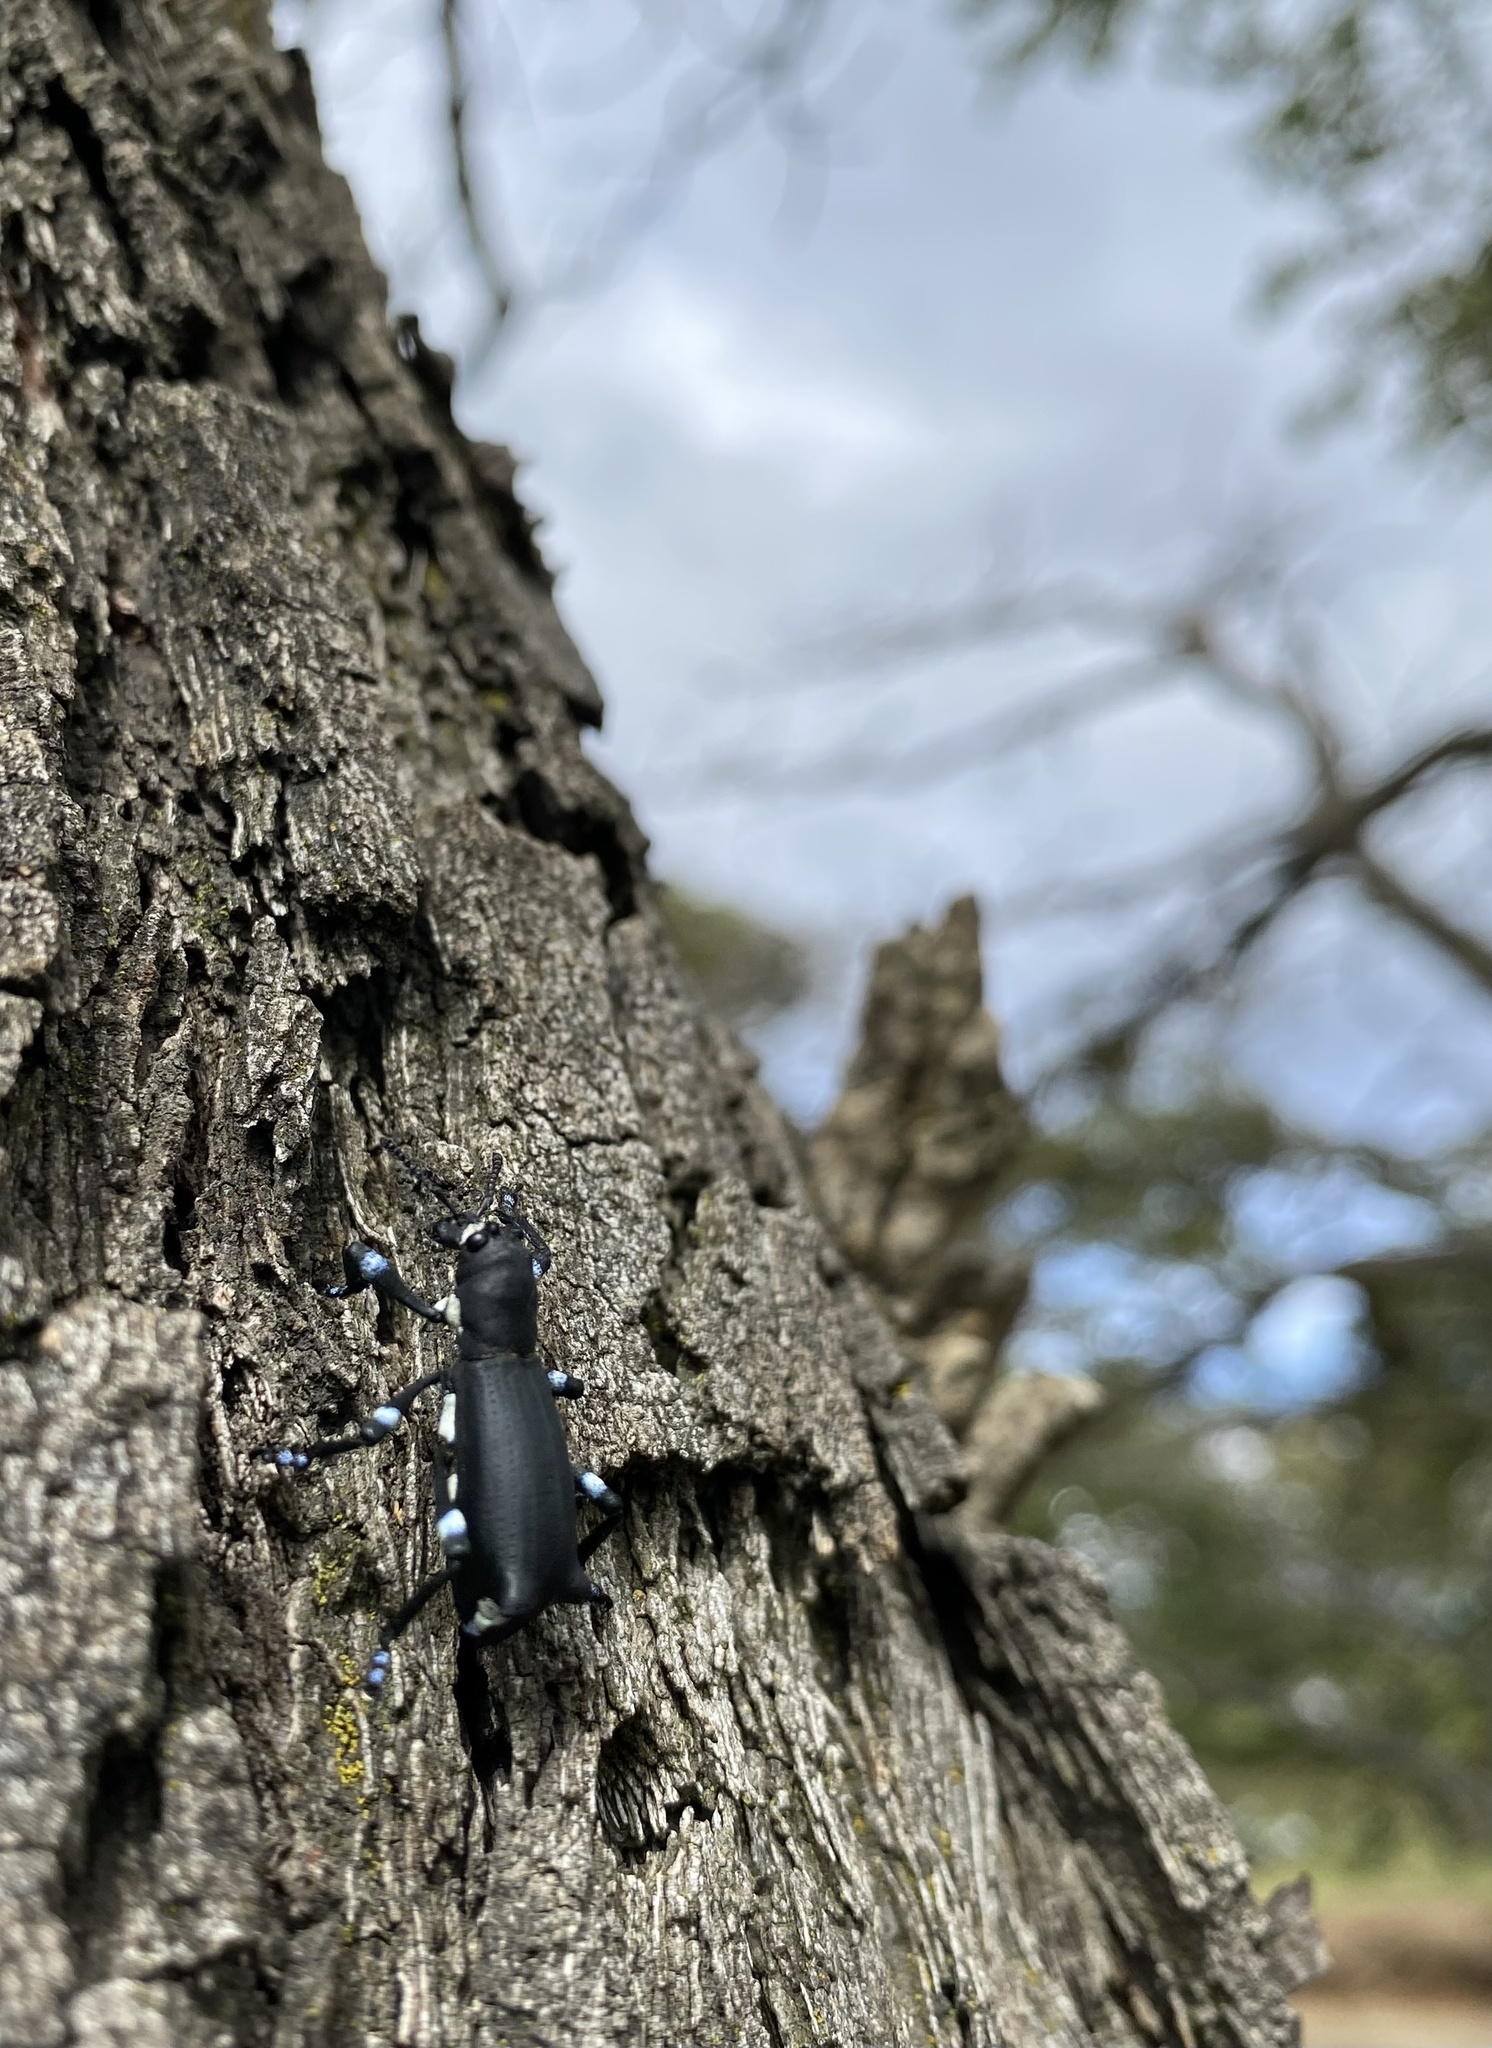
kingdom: Animalia
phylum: Arthropoda
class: Insecta
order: Coleoptera
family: Curculionidae
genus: Aegorhinus
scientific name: Aegorhinus
